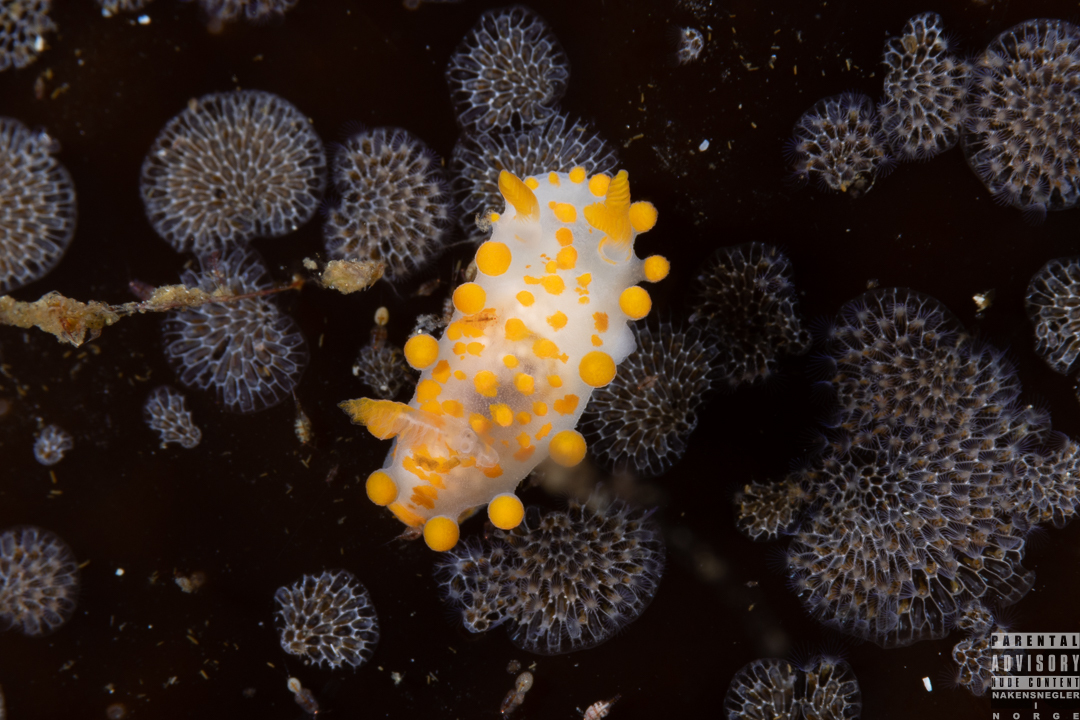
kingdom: Animalia
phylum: Mollusca
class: Gastropoda
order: Nudibranchia
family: Polyceridae
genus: Limacia
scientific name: Limacia clavigera
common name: Orange-clubbed sea slug
